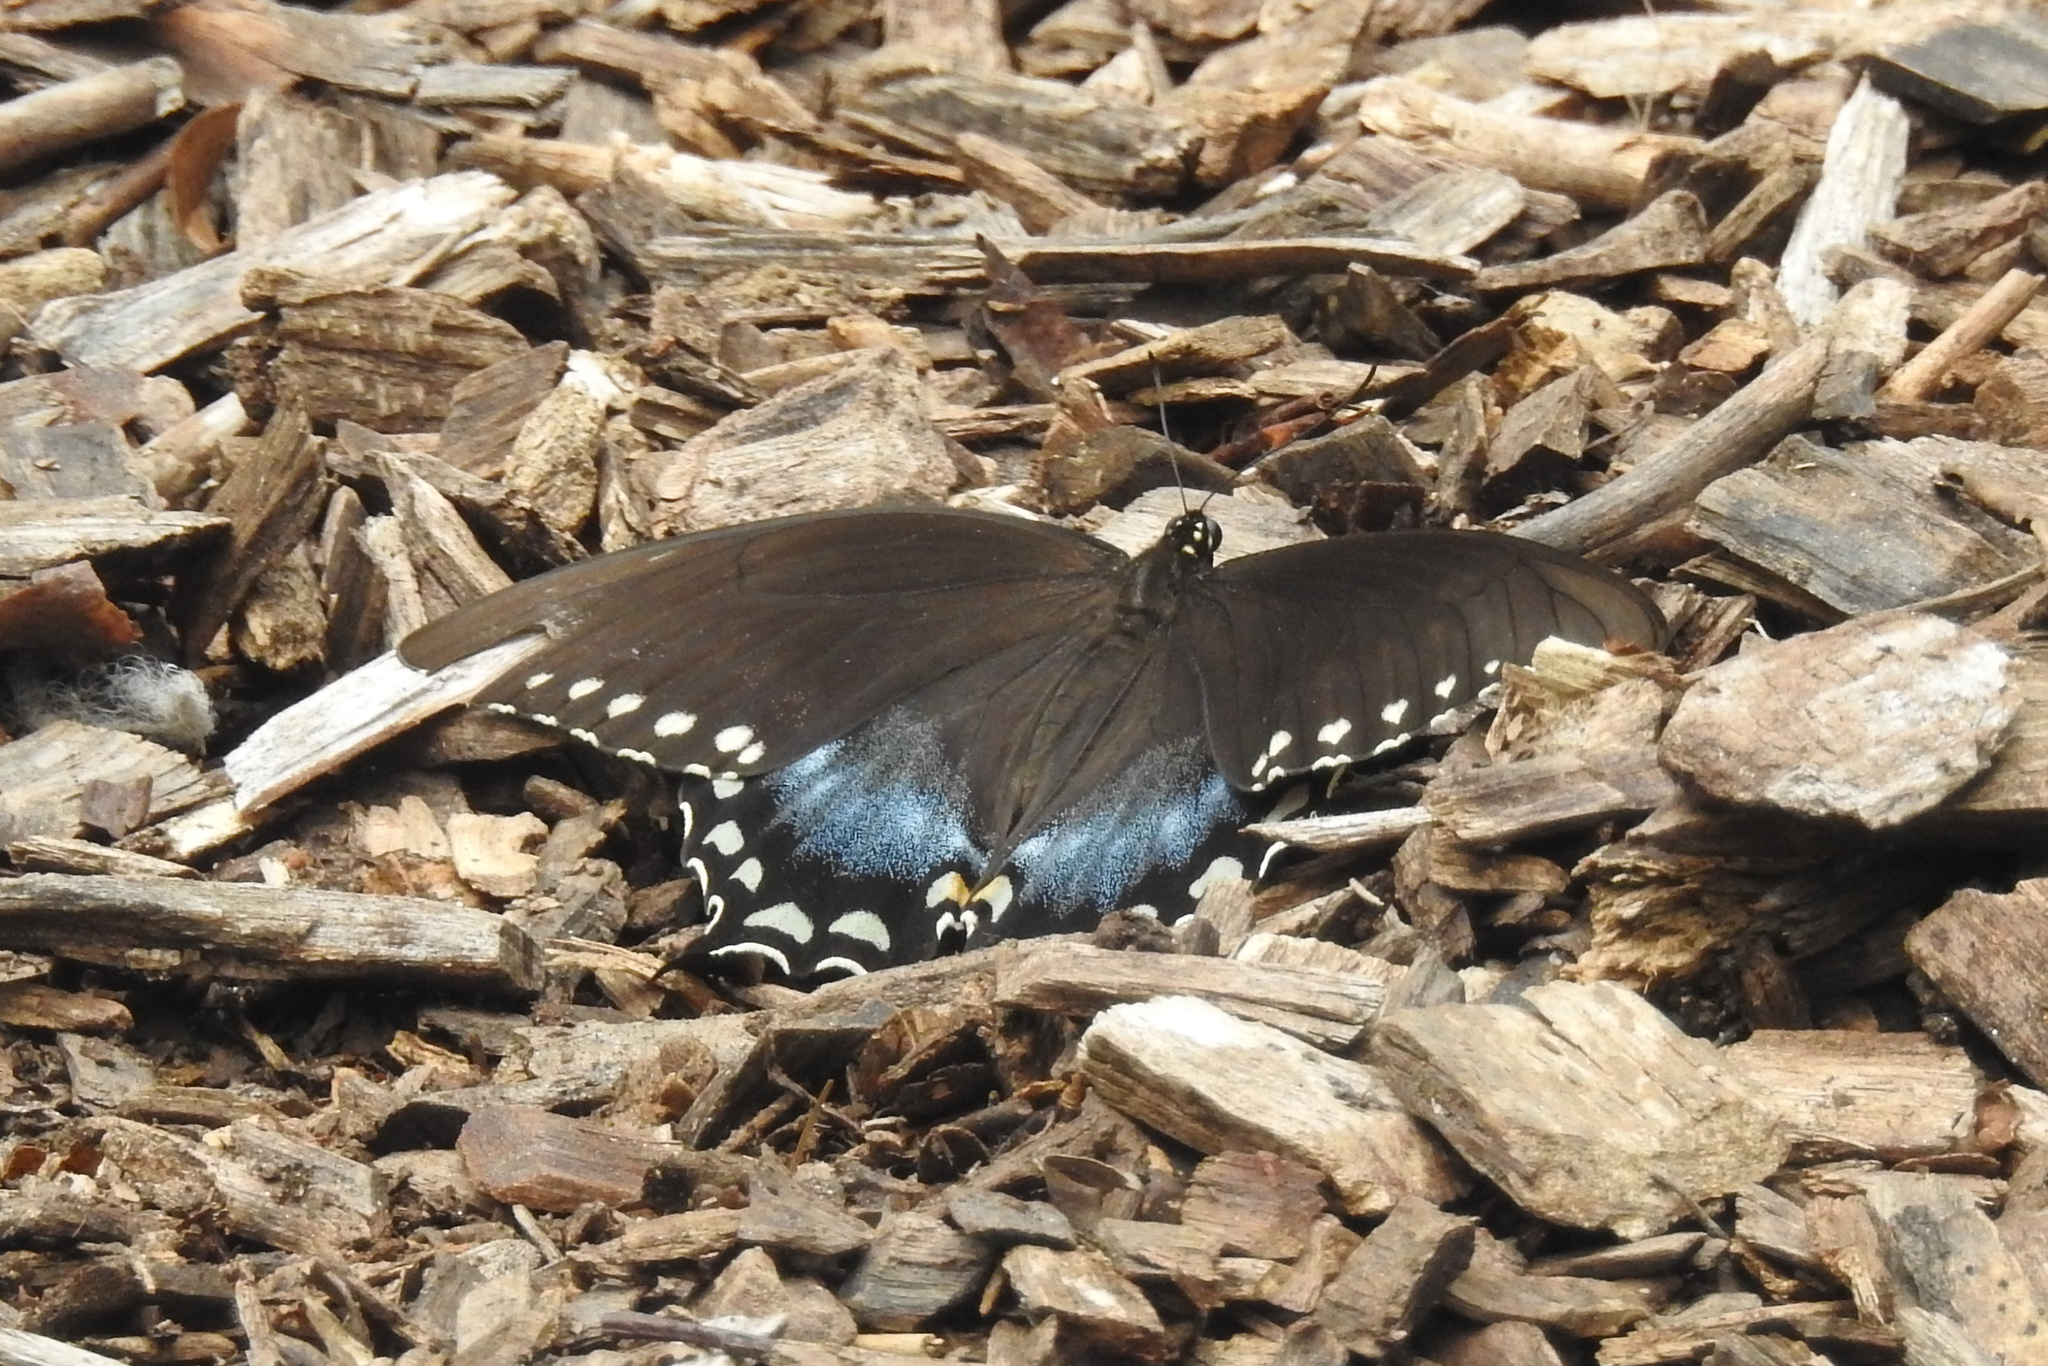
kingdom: Animalia
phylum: Arthropoda
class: Insecta
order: Lepidoptera
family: Papilionidae
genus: Papilio
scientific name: Papilio troilus
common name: Spicebush swallowtail
